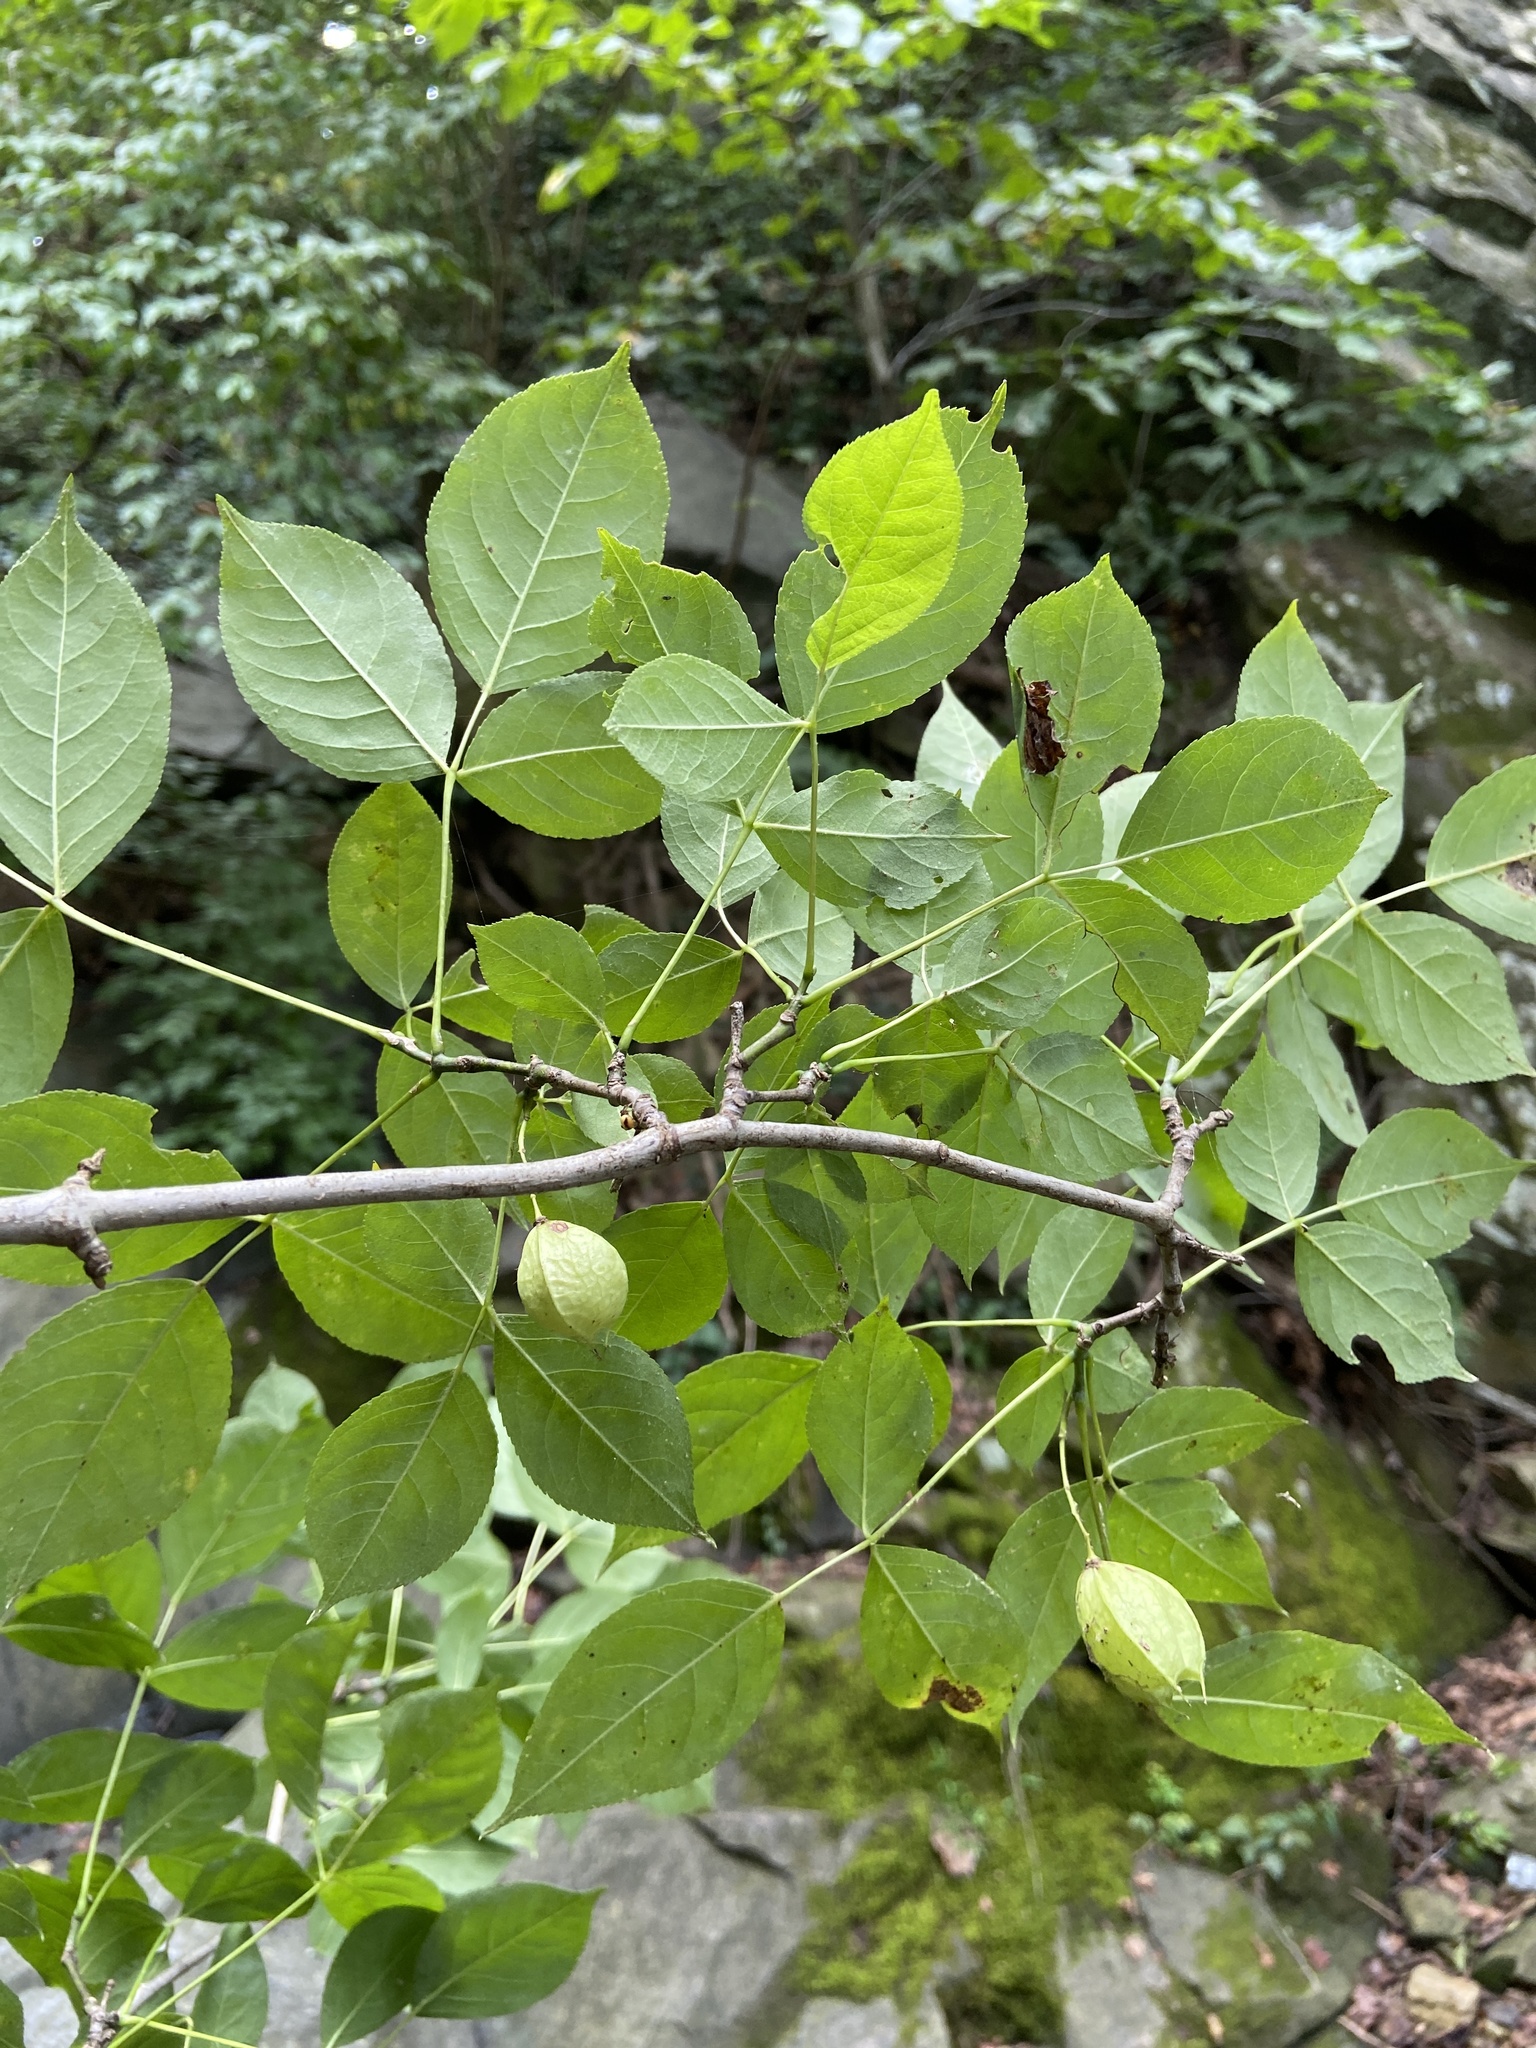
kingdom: Plantae
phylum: Tracheophyta
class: Magnoliopsida
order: Crossosomatales
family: Staphyleaceae
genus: Staphylea
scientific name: Staphylea trifolia
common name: American bladdernut
